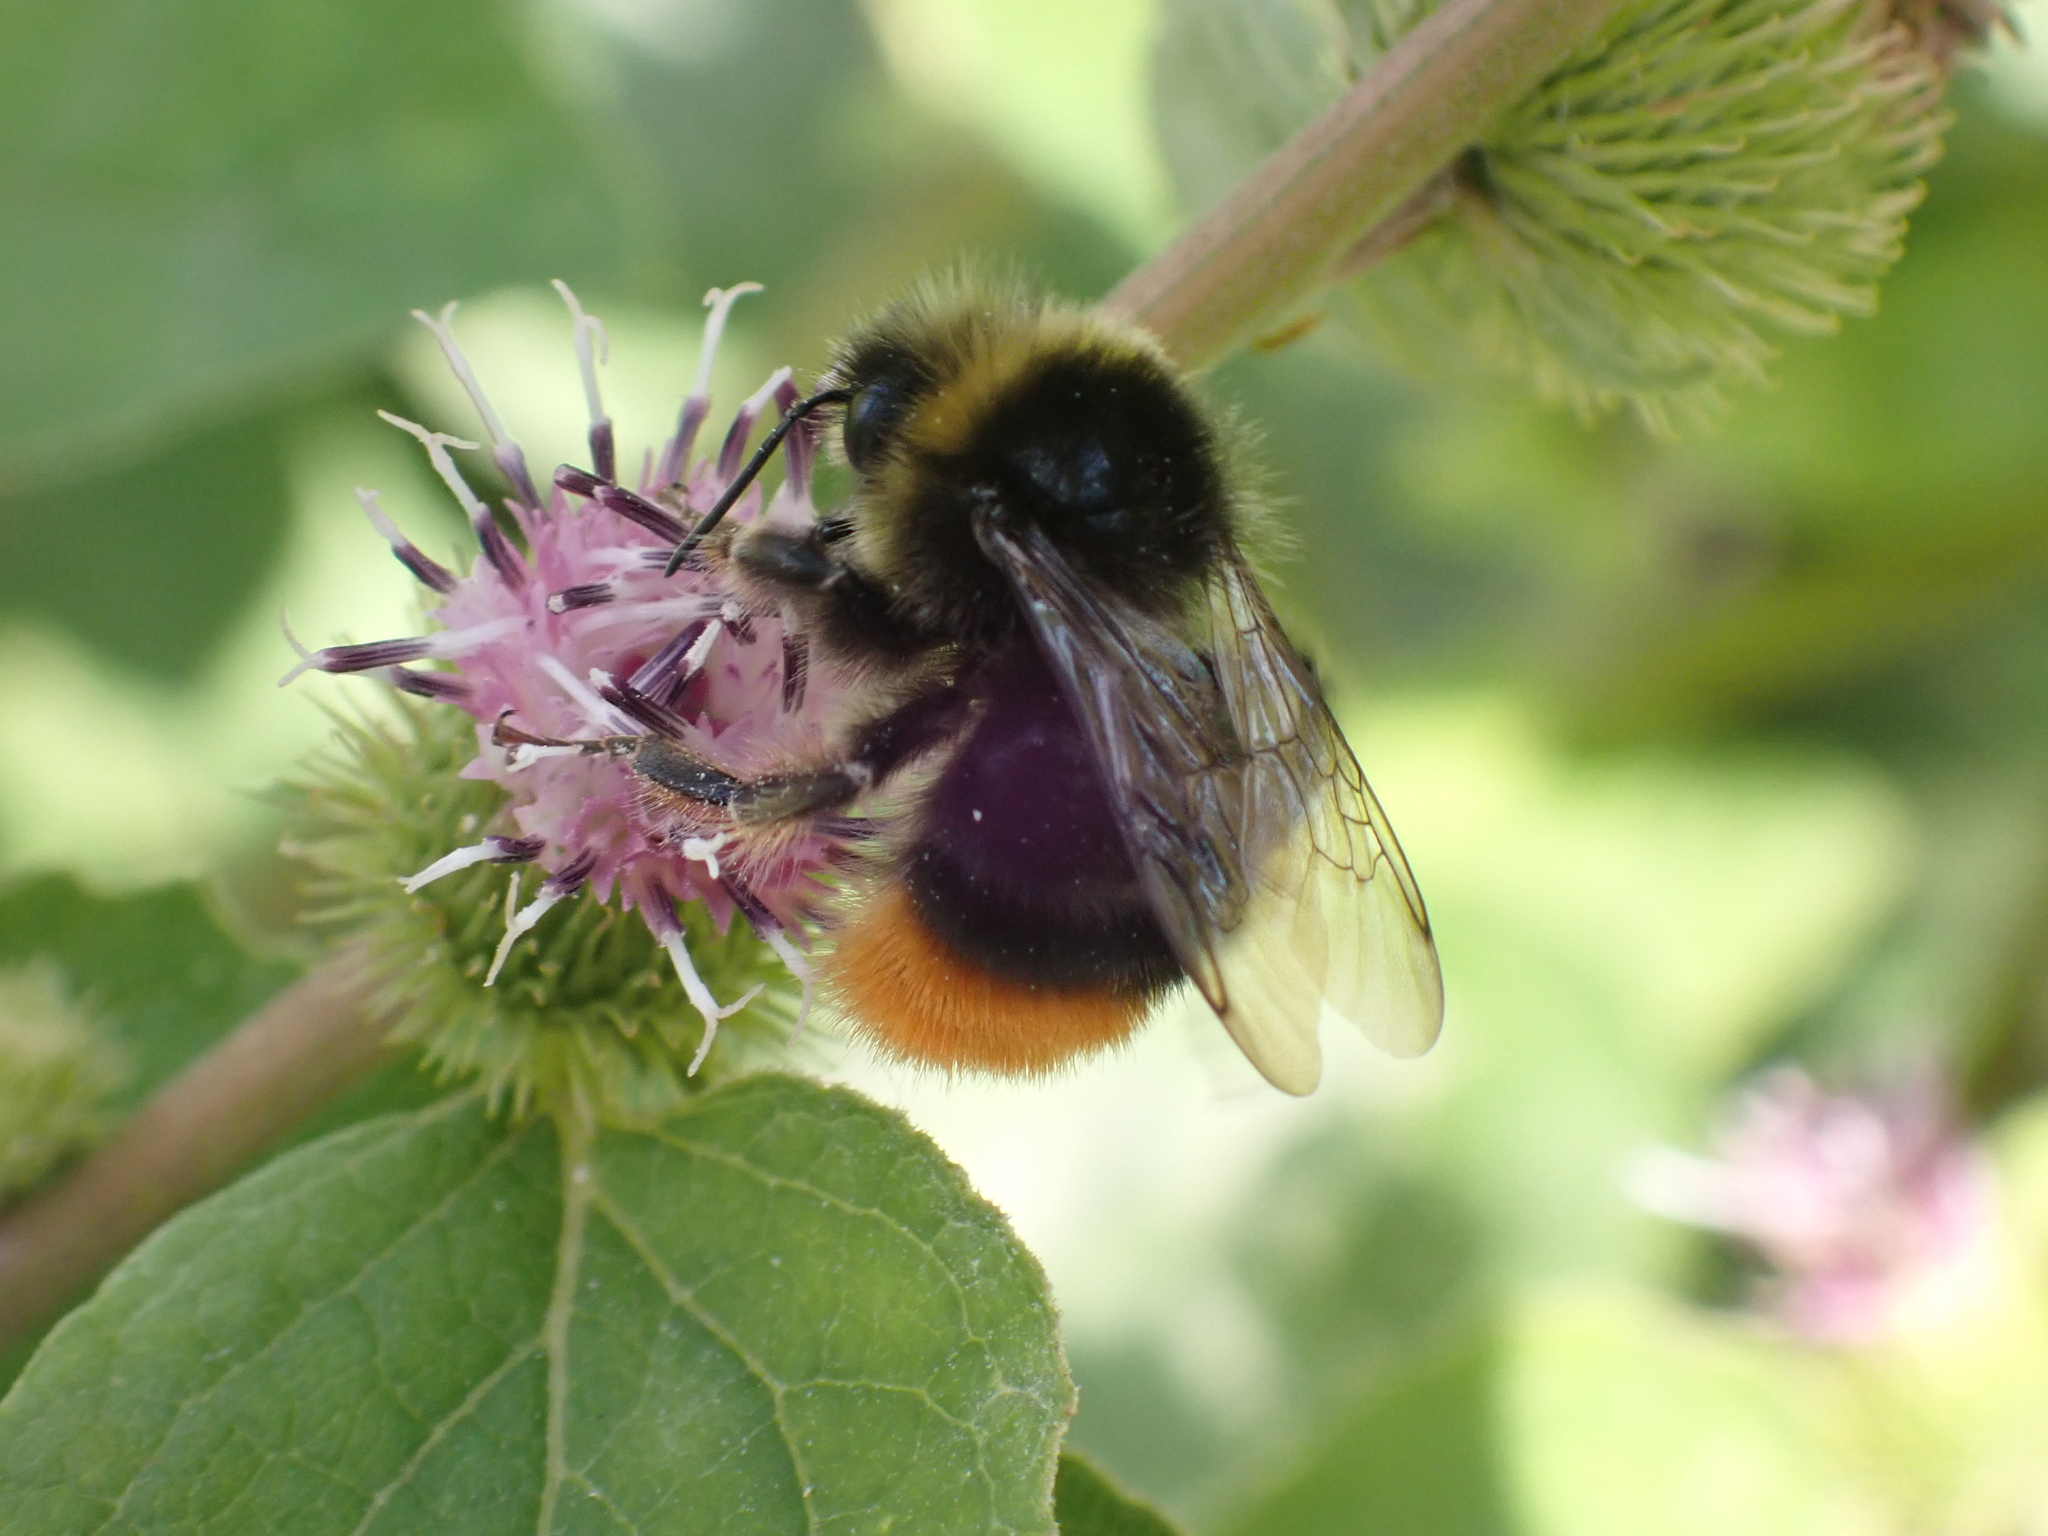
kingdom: Animalia
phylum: Arthropoda
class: Insecta
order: Hymenoptera
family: Apidae
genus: Bombus
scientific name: Bombus lapidarius
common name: Large red-tailed humble-bee
